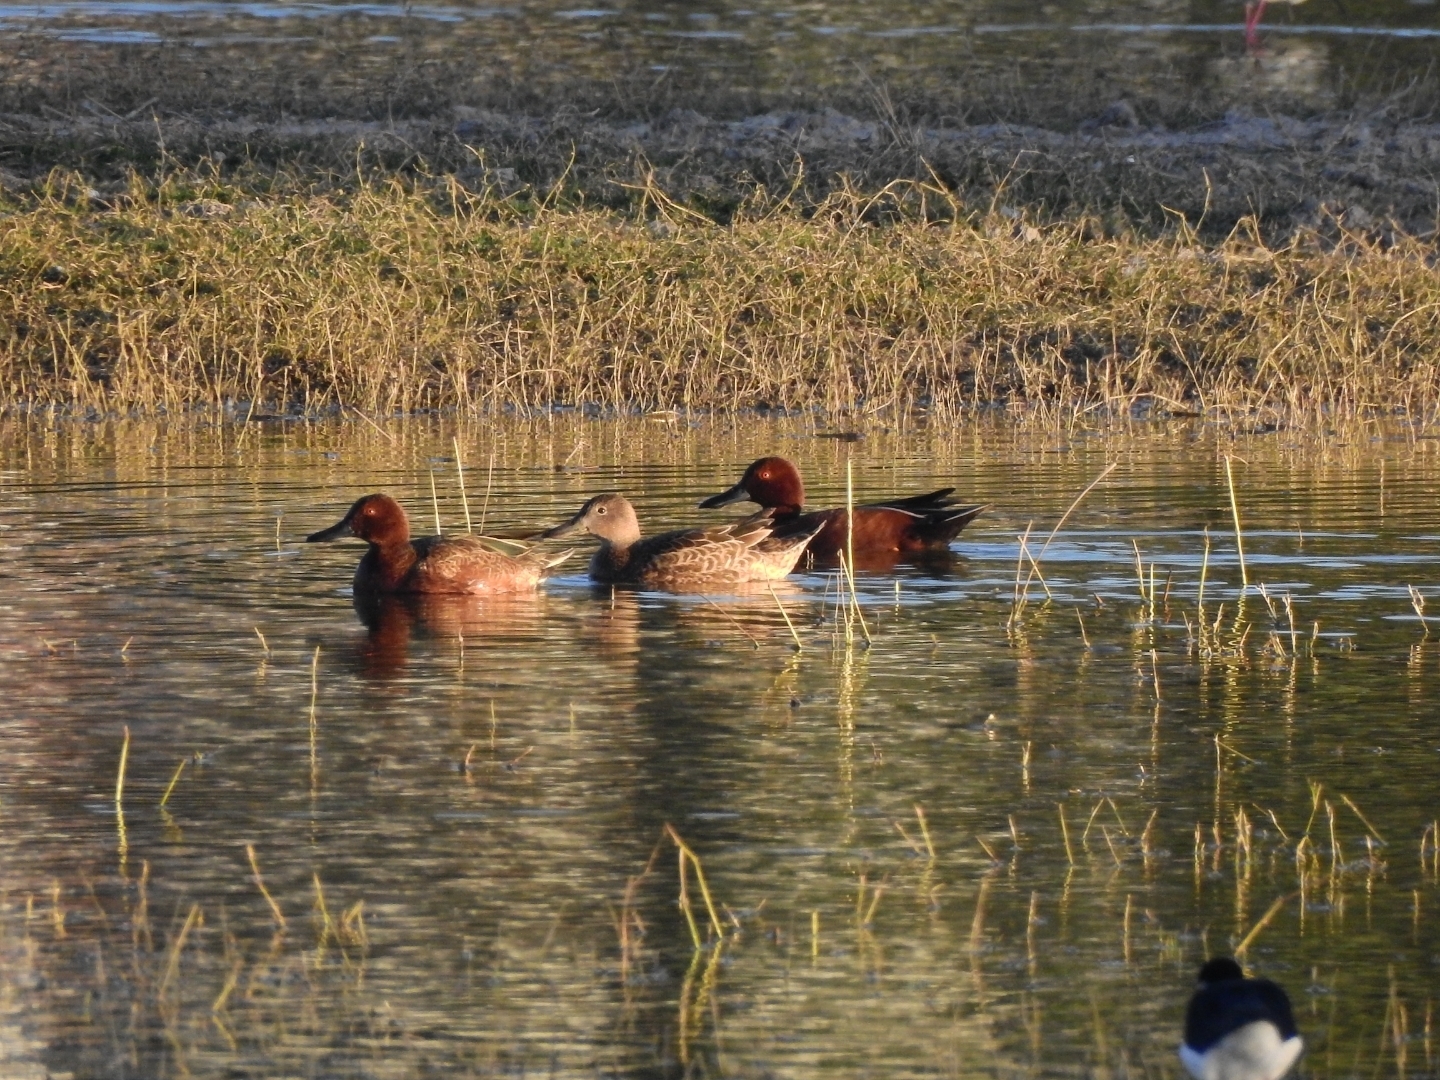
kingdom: Animalia
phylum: Chordata
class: Aves
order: Anseriformes
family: Anatidae
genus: Spatula
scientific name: Spatula cyanoptera
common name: Cinnamon teal
